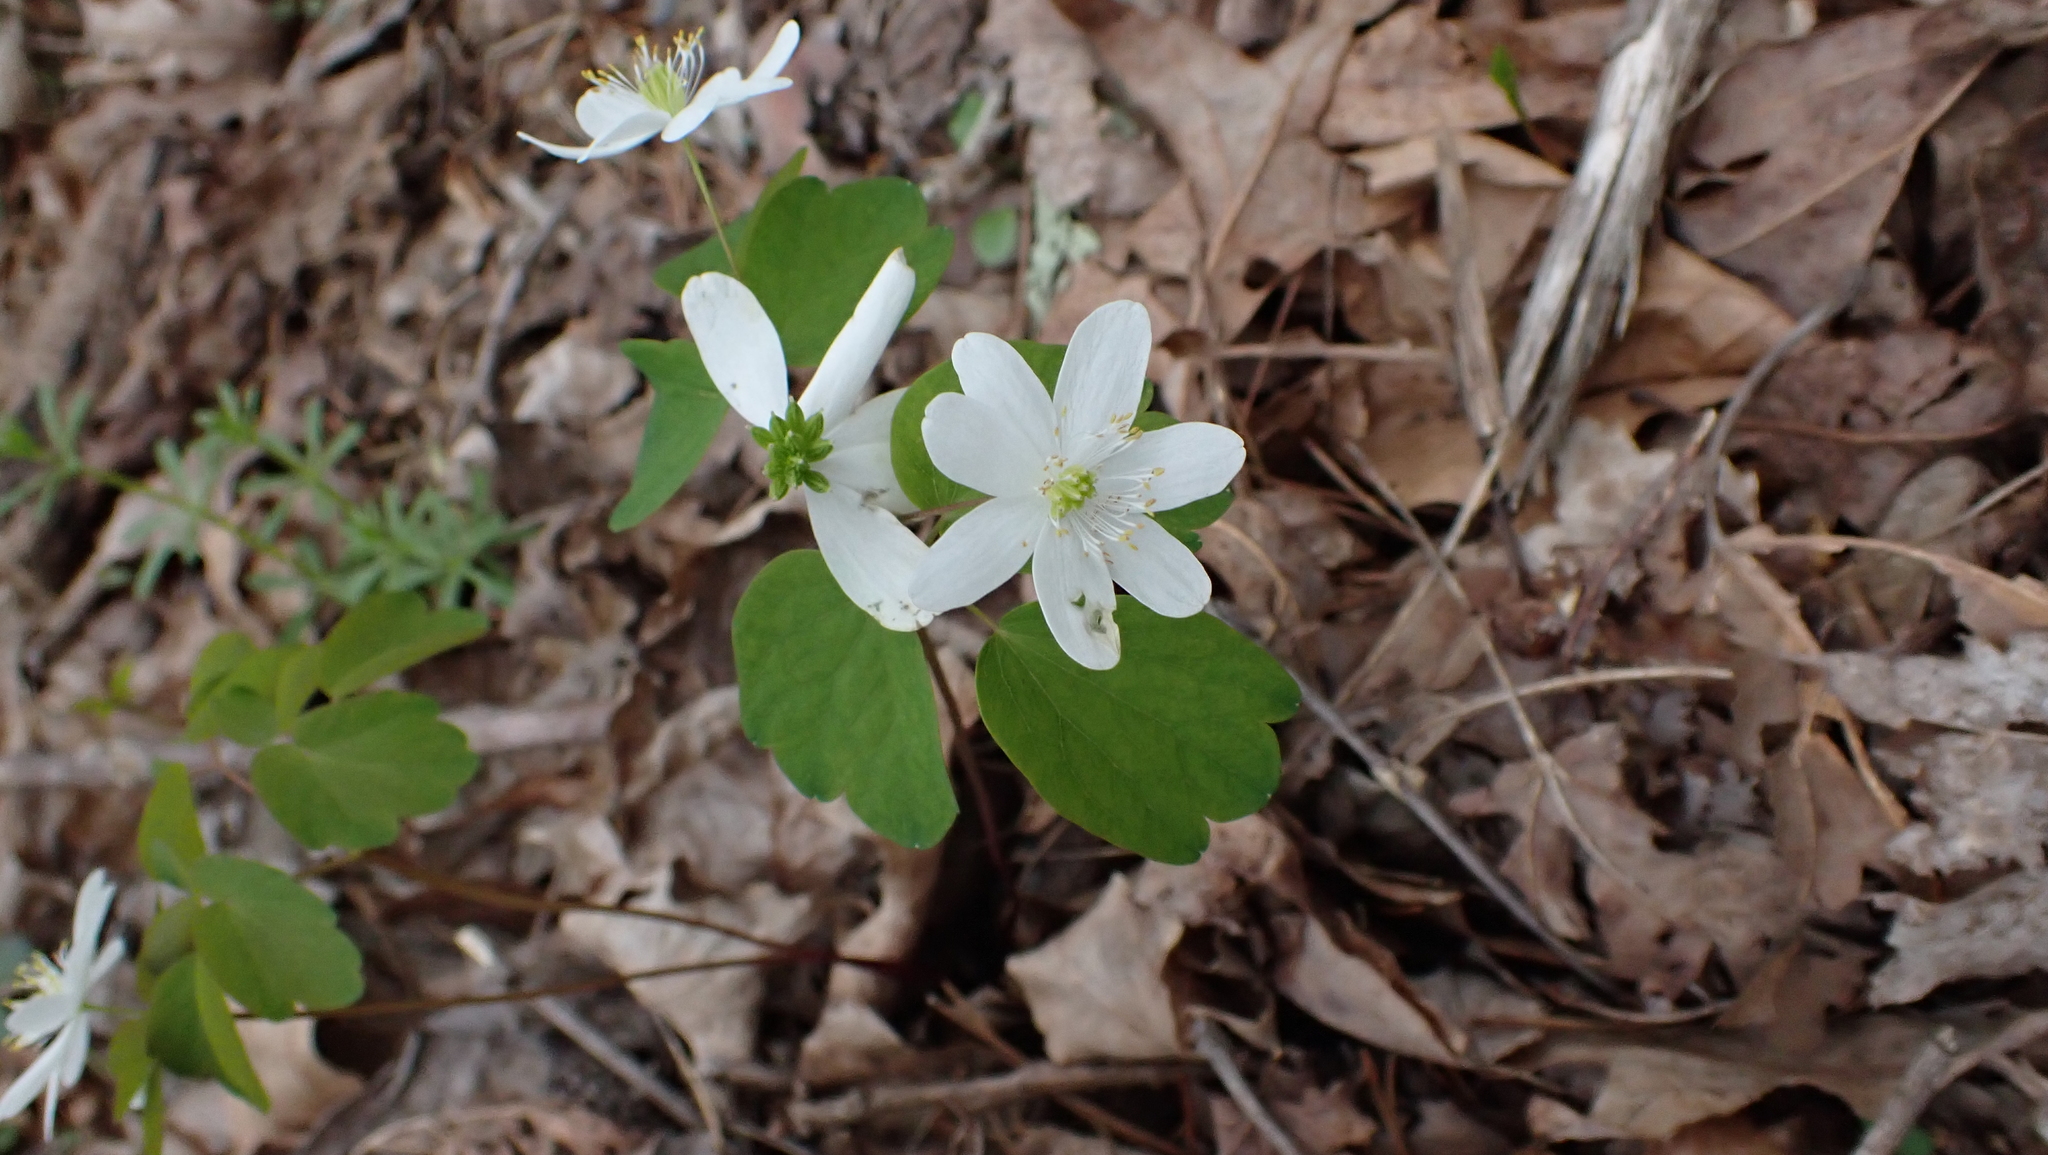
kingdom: Plantae
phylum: Tracheophyta
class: Magnoliopsida
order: Ranunculales
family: Ranunculaceae
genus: Thalictrum
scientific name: Thalictrum thalictroides
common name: Rue-anemone
